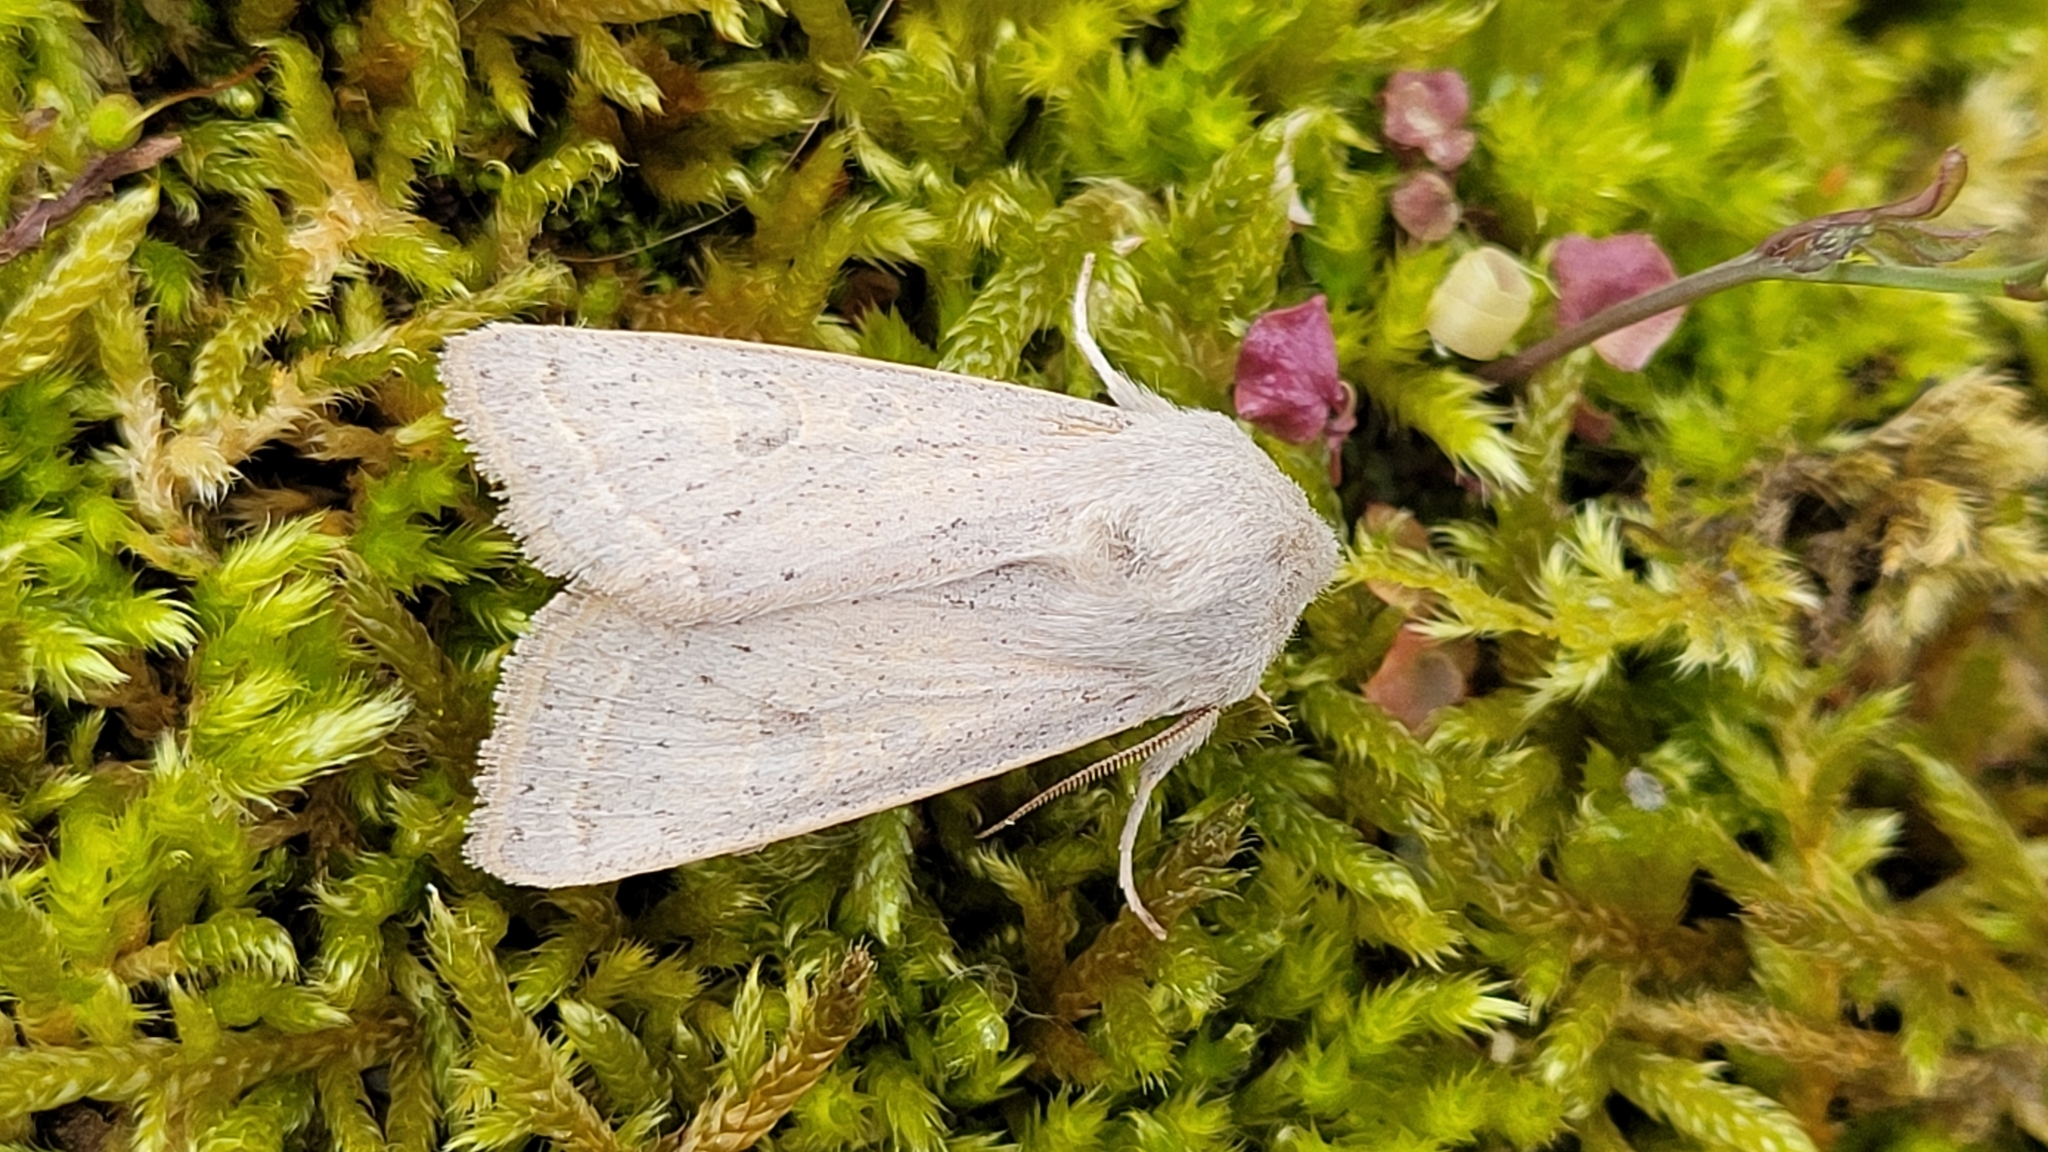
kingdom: Animalia
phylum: Arthropoda
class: Insecta
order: Lepidoptera
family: Noctuidae
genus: Orthosia
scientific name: Orthosia gracilis
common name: Powdered quaker
